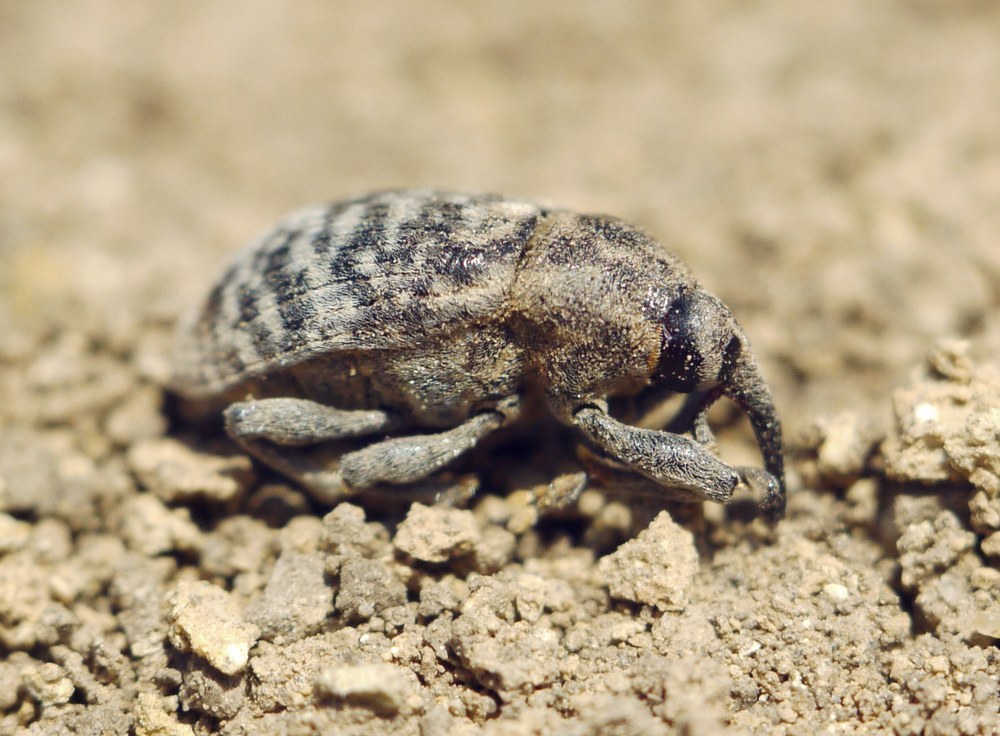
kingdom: Animalia
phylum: Arthropoda
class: Insecta
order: Coleoptera
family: Curculionidae
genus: Larinus
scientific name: Larinus centaurii
